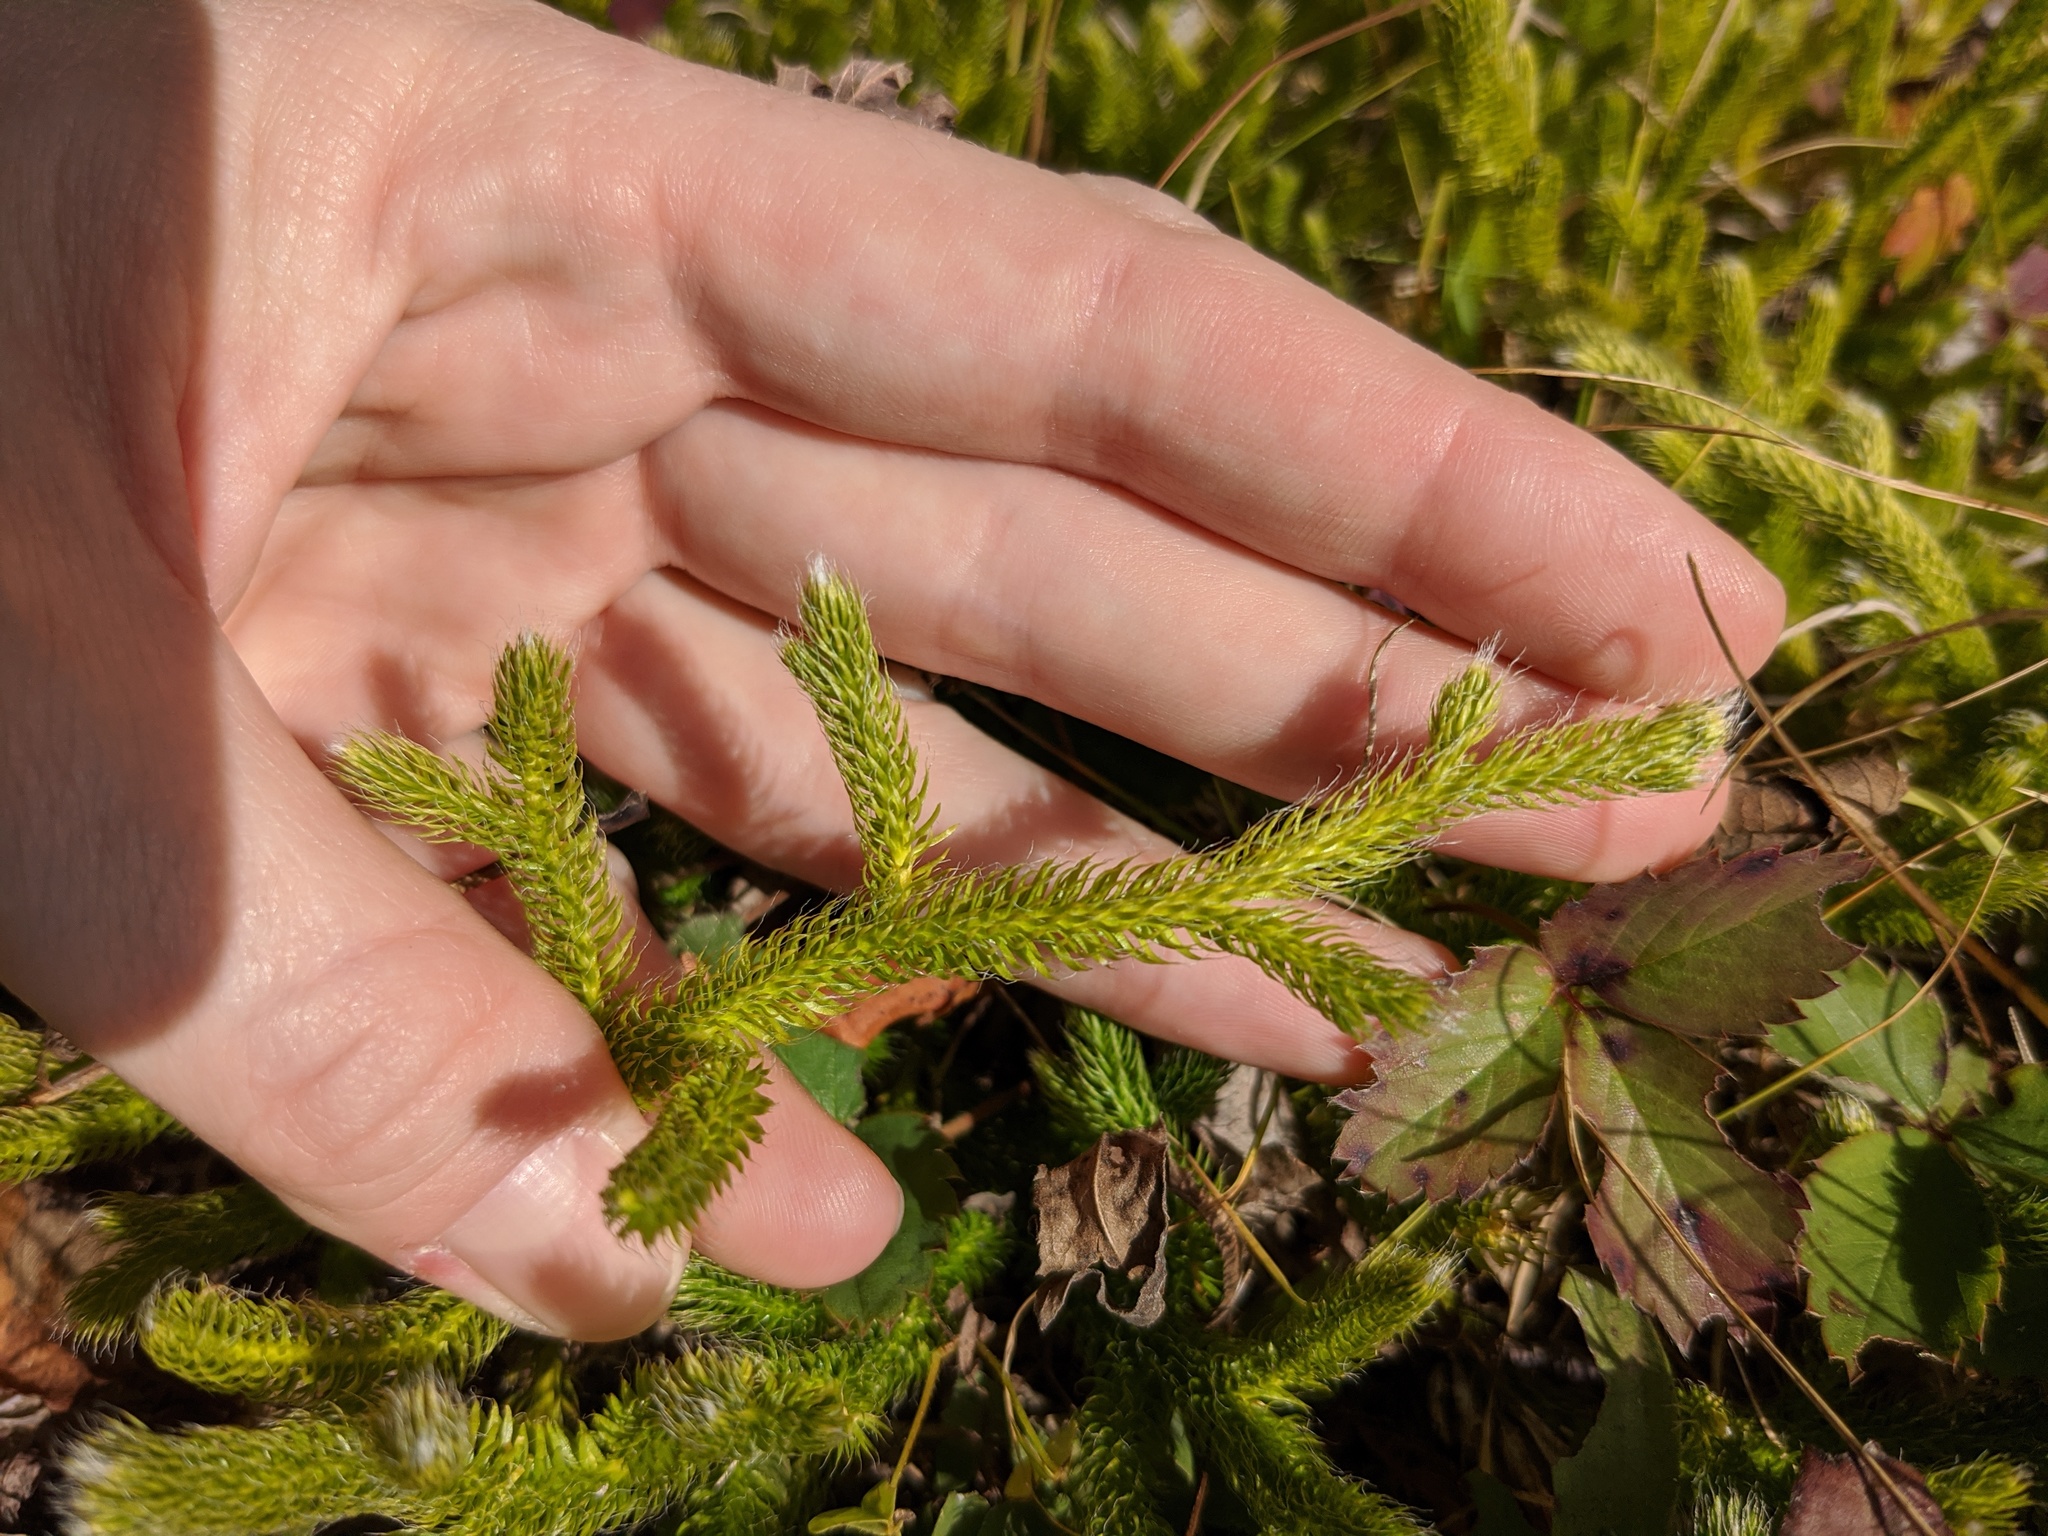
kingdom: Plantae
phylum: Tracheophyta
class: Lycopodiopsida
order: Lycopodiales
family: Lycopodiaceae
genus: Lycopodium
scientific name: Lycopodium clavatum
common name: Stag's-horn clubmoss
